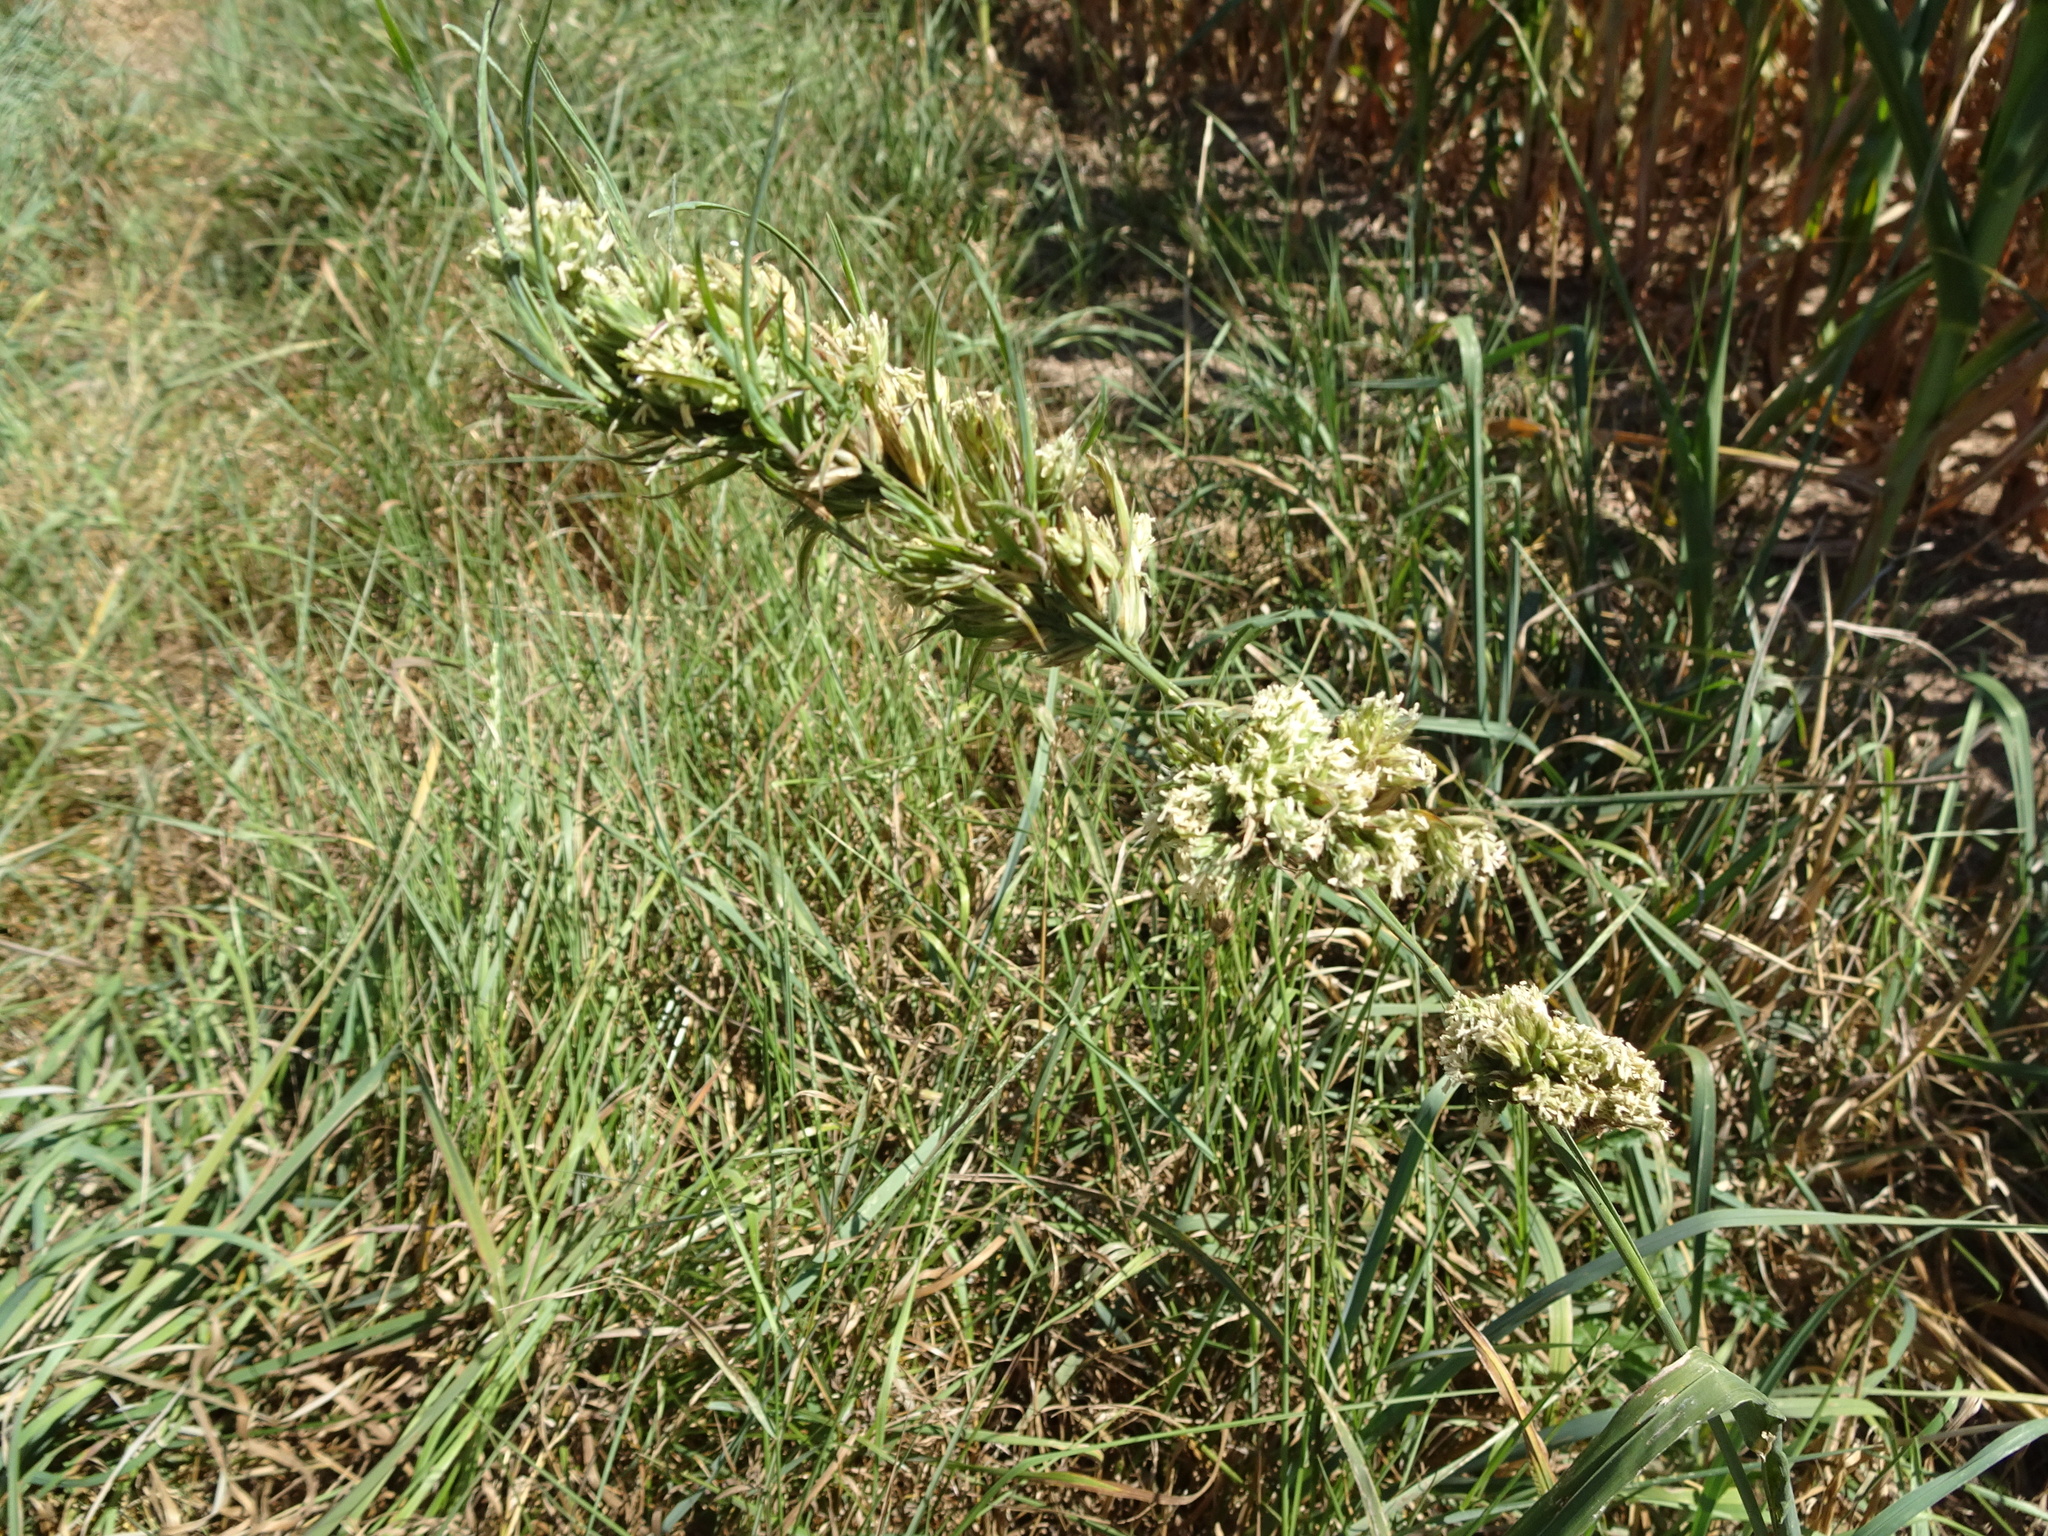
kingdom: Plantae
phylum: Tracheophyta
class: Liliopsida
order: Poales
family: Poaceae
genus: Dactylis
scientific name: Dactylis glomerata
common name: Orchardgrass
